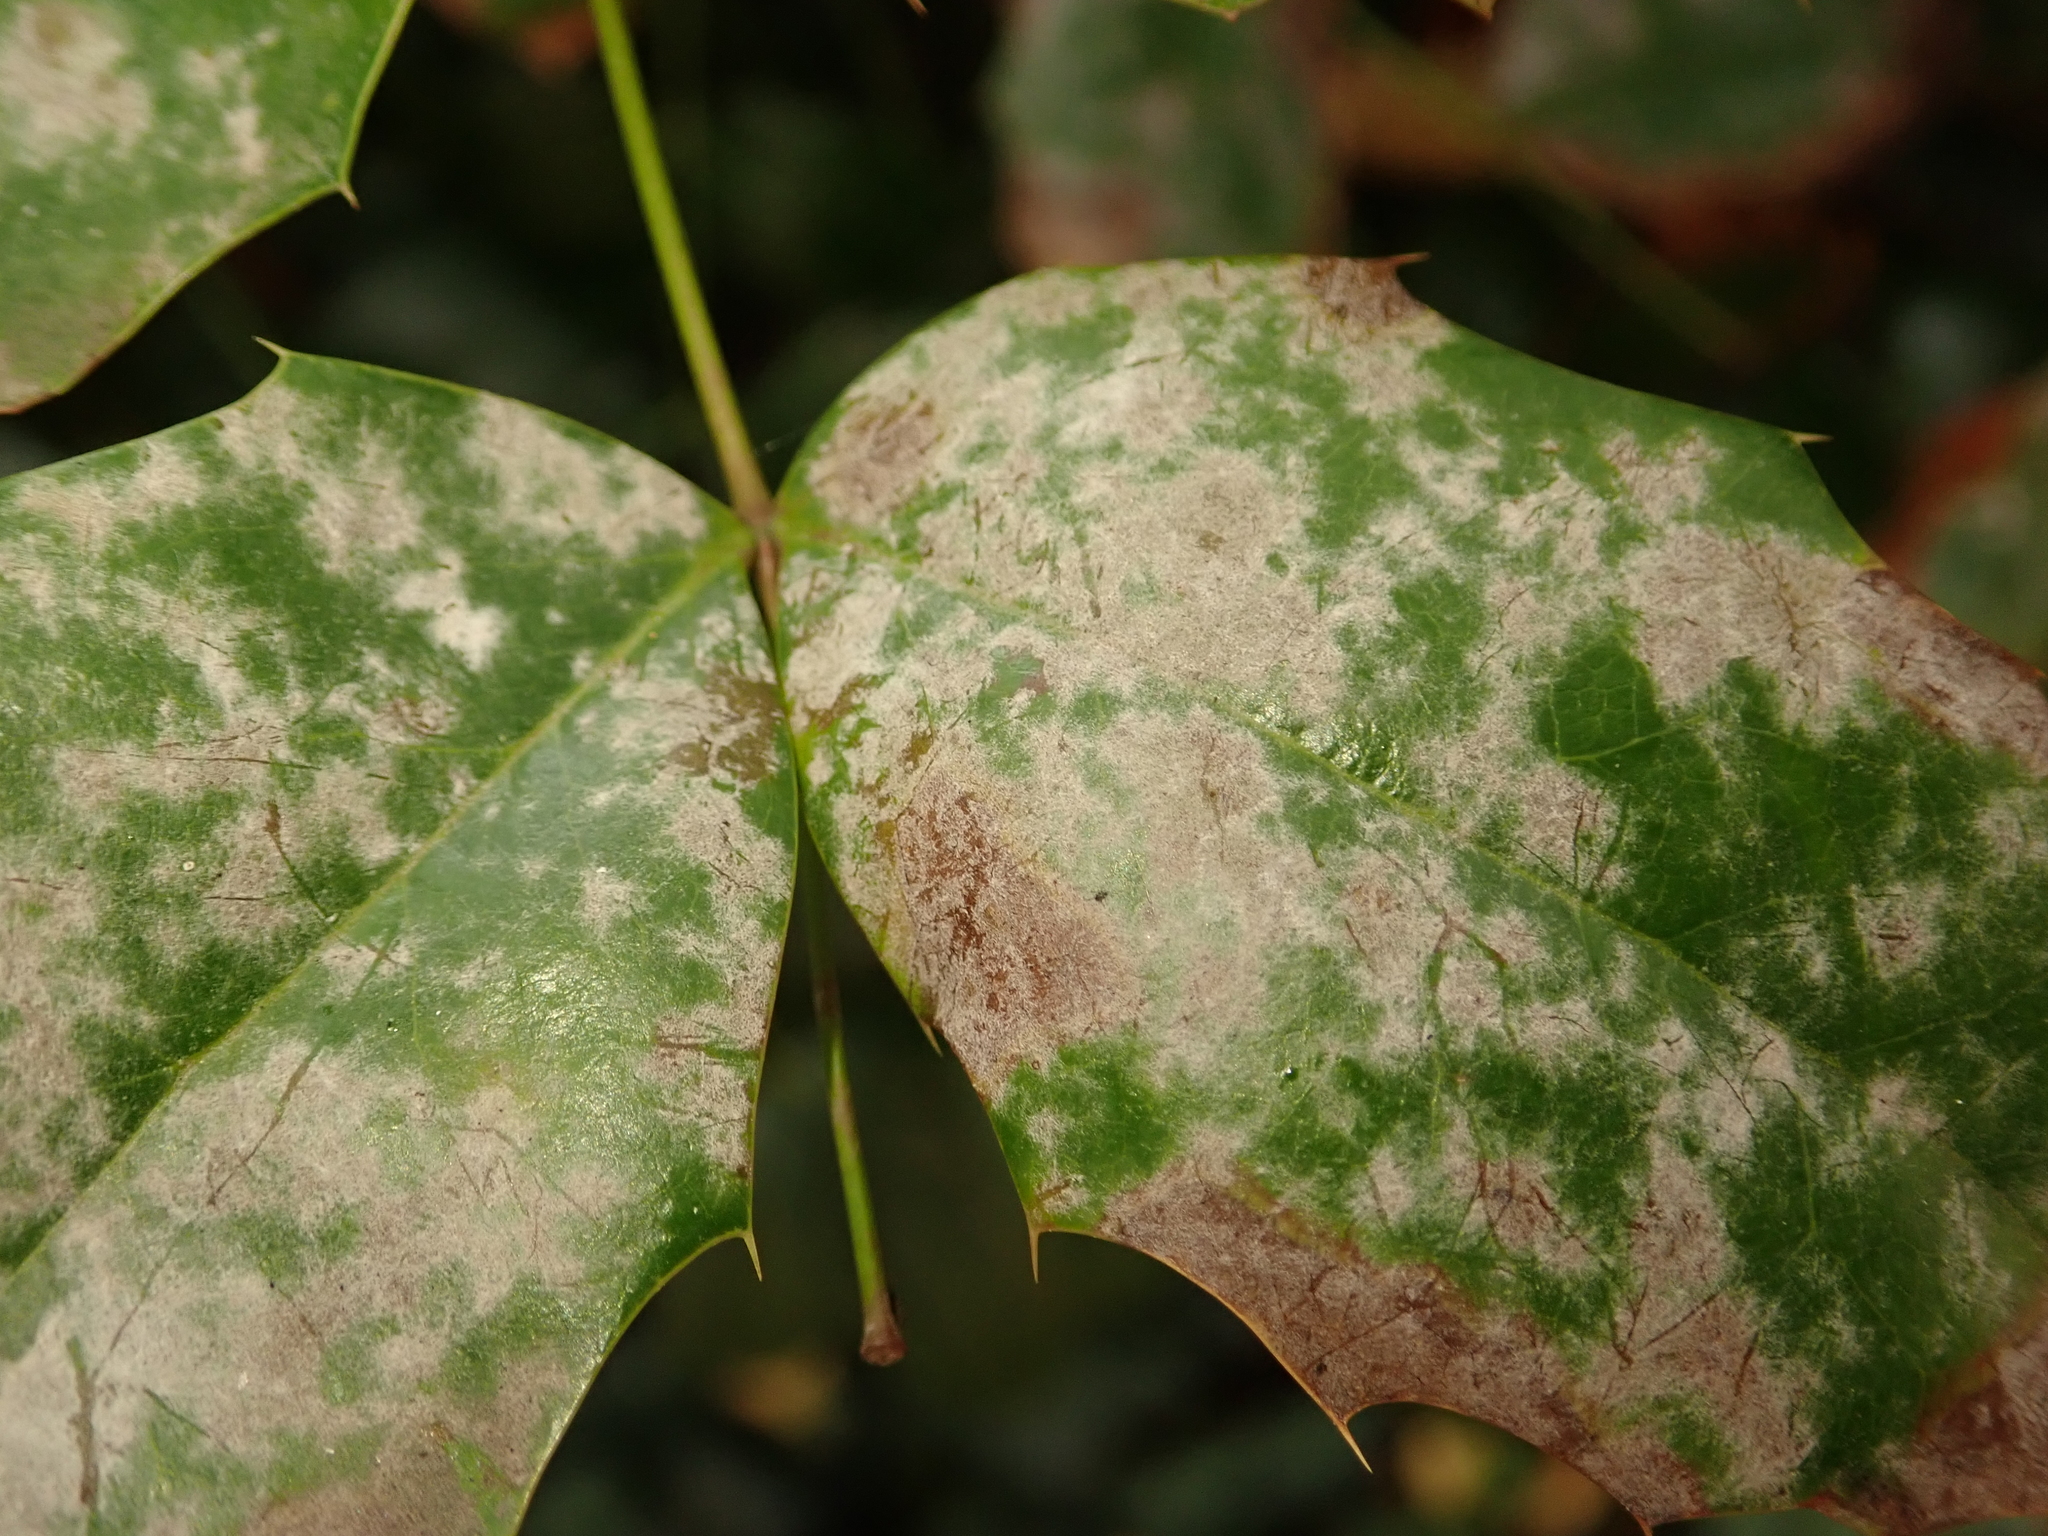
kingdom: Fungi
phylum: Ascomycota
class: Leotiomycetes
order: Helotiales
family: Erysiphaceae
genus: Erysiphe
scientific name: Erysiphe berberidis
